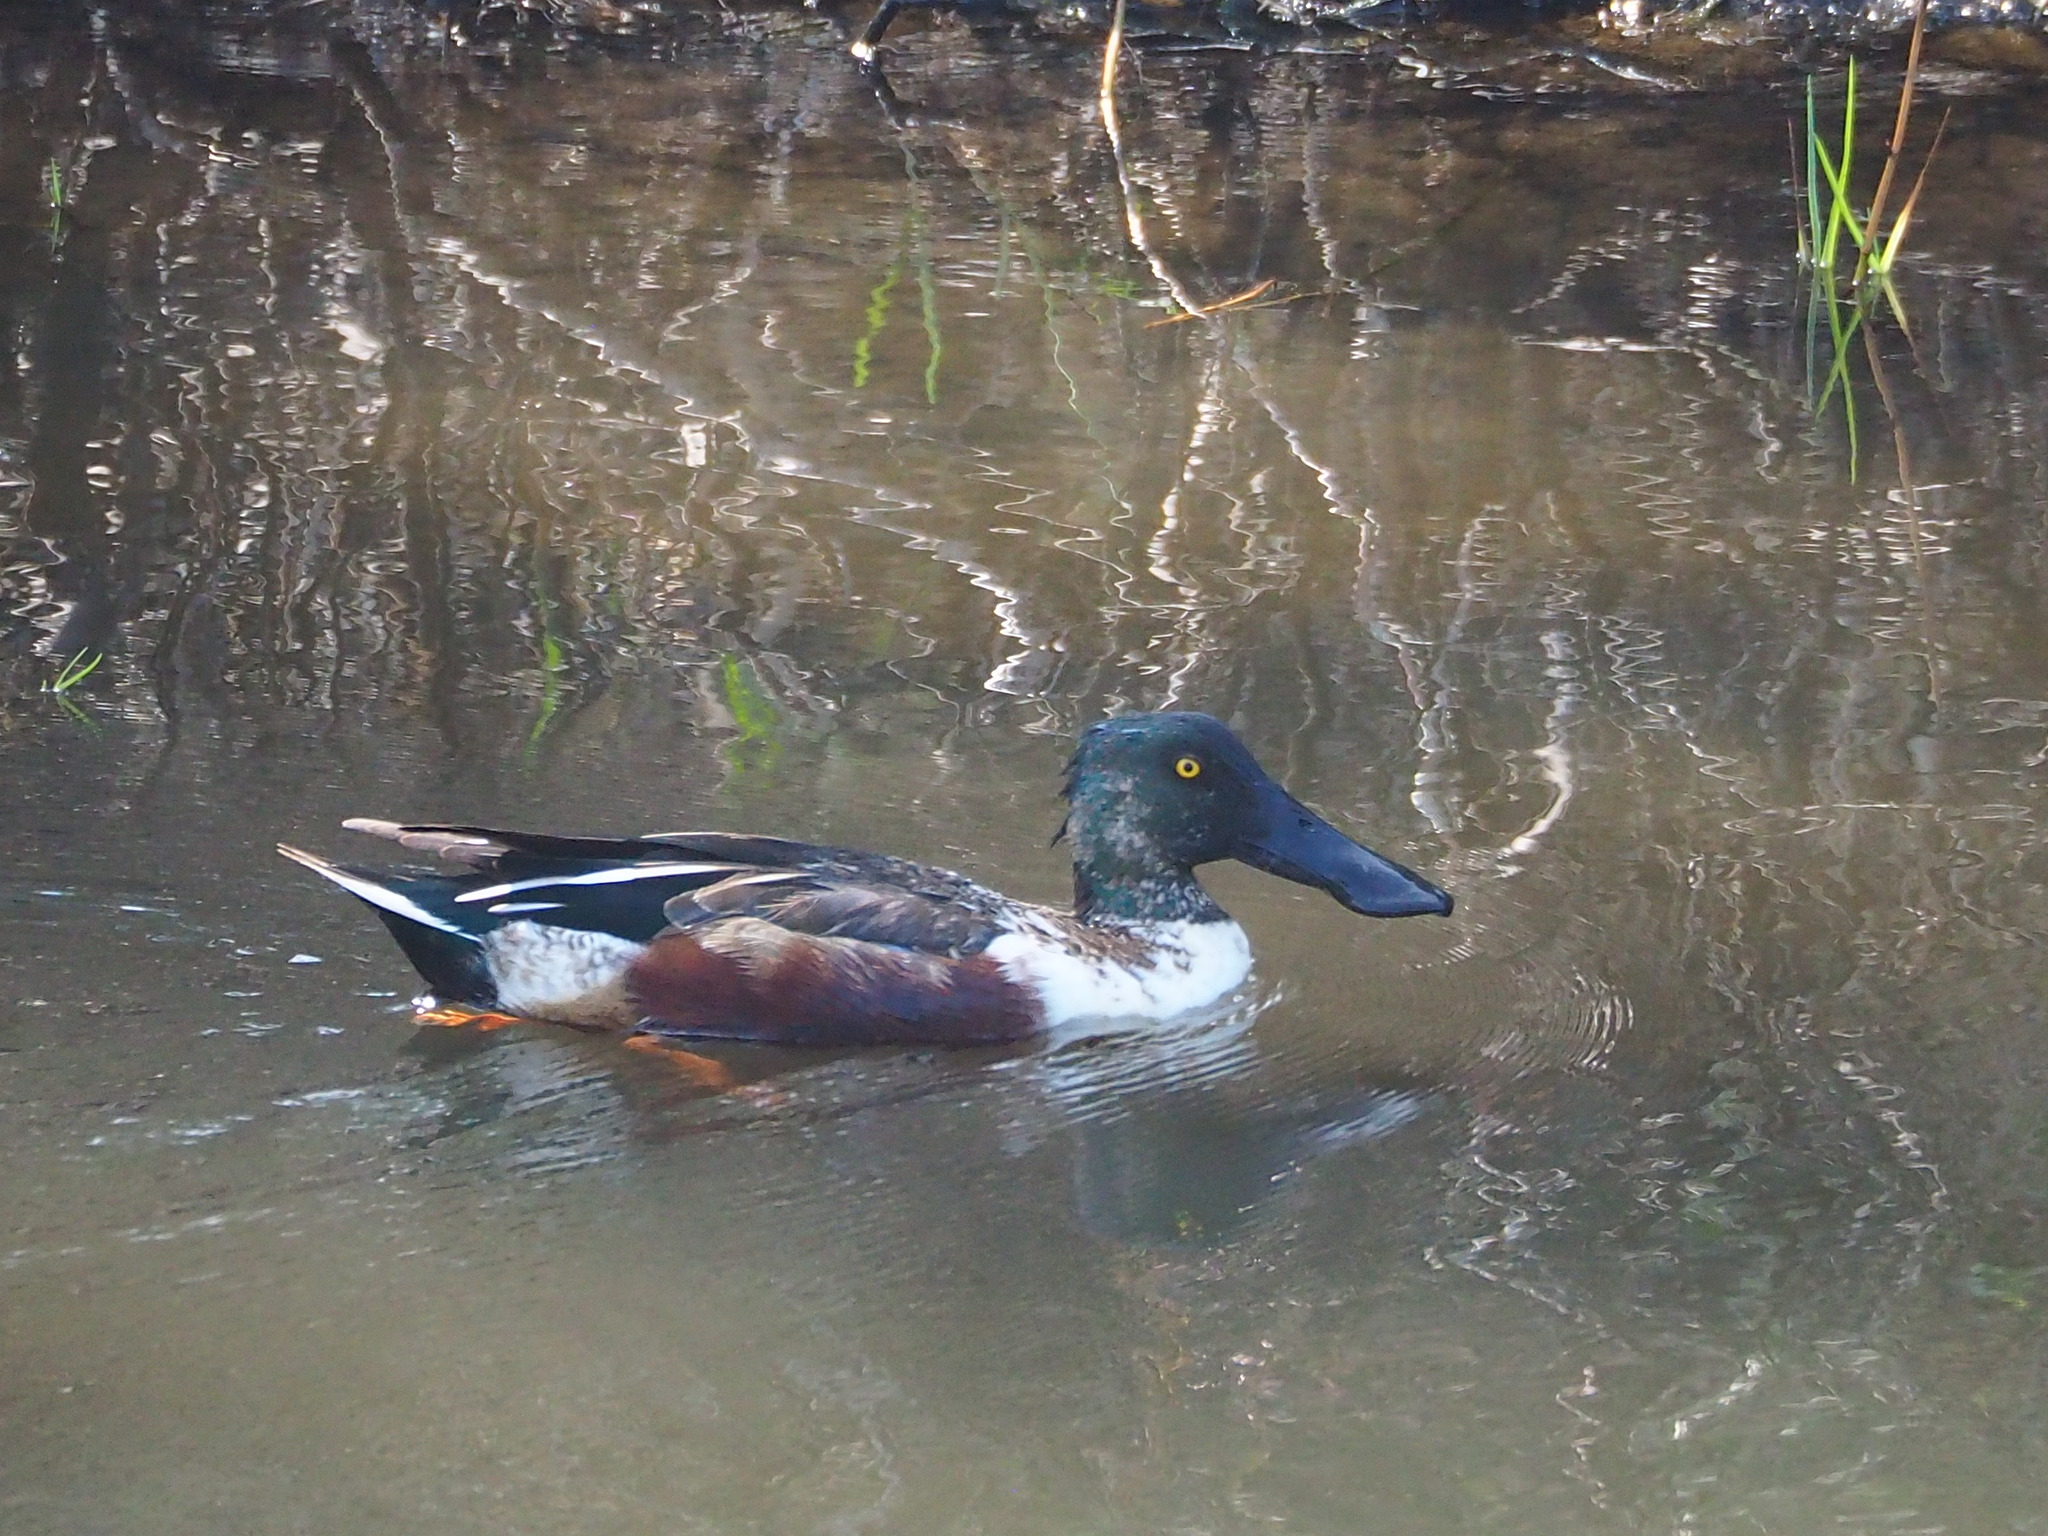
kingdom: Animalia
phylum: Chordata
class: Aves
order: Anseriformes
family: Anatidae
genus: Spatula
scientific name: Spatula clypeata
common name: Northern shoveler
